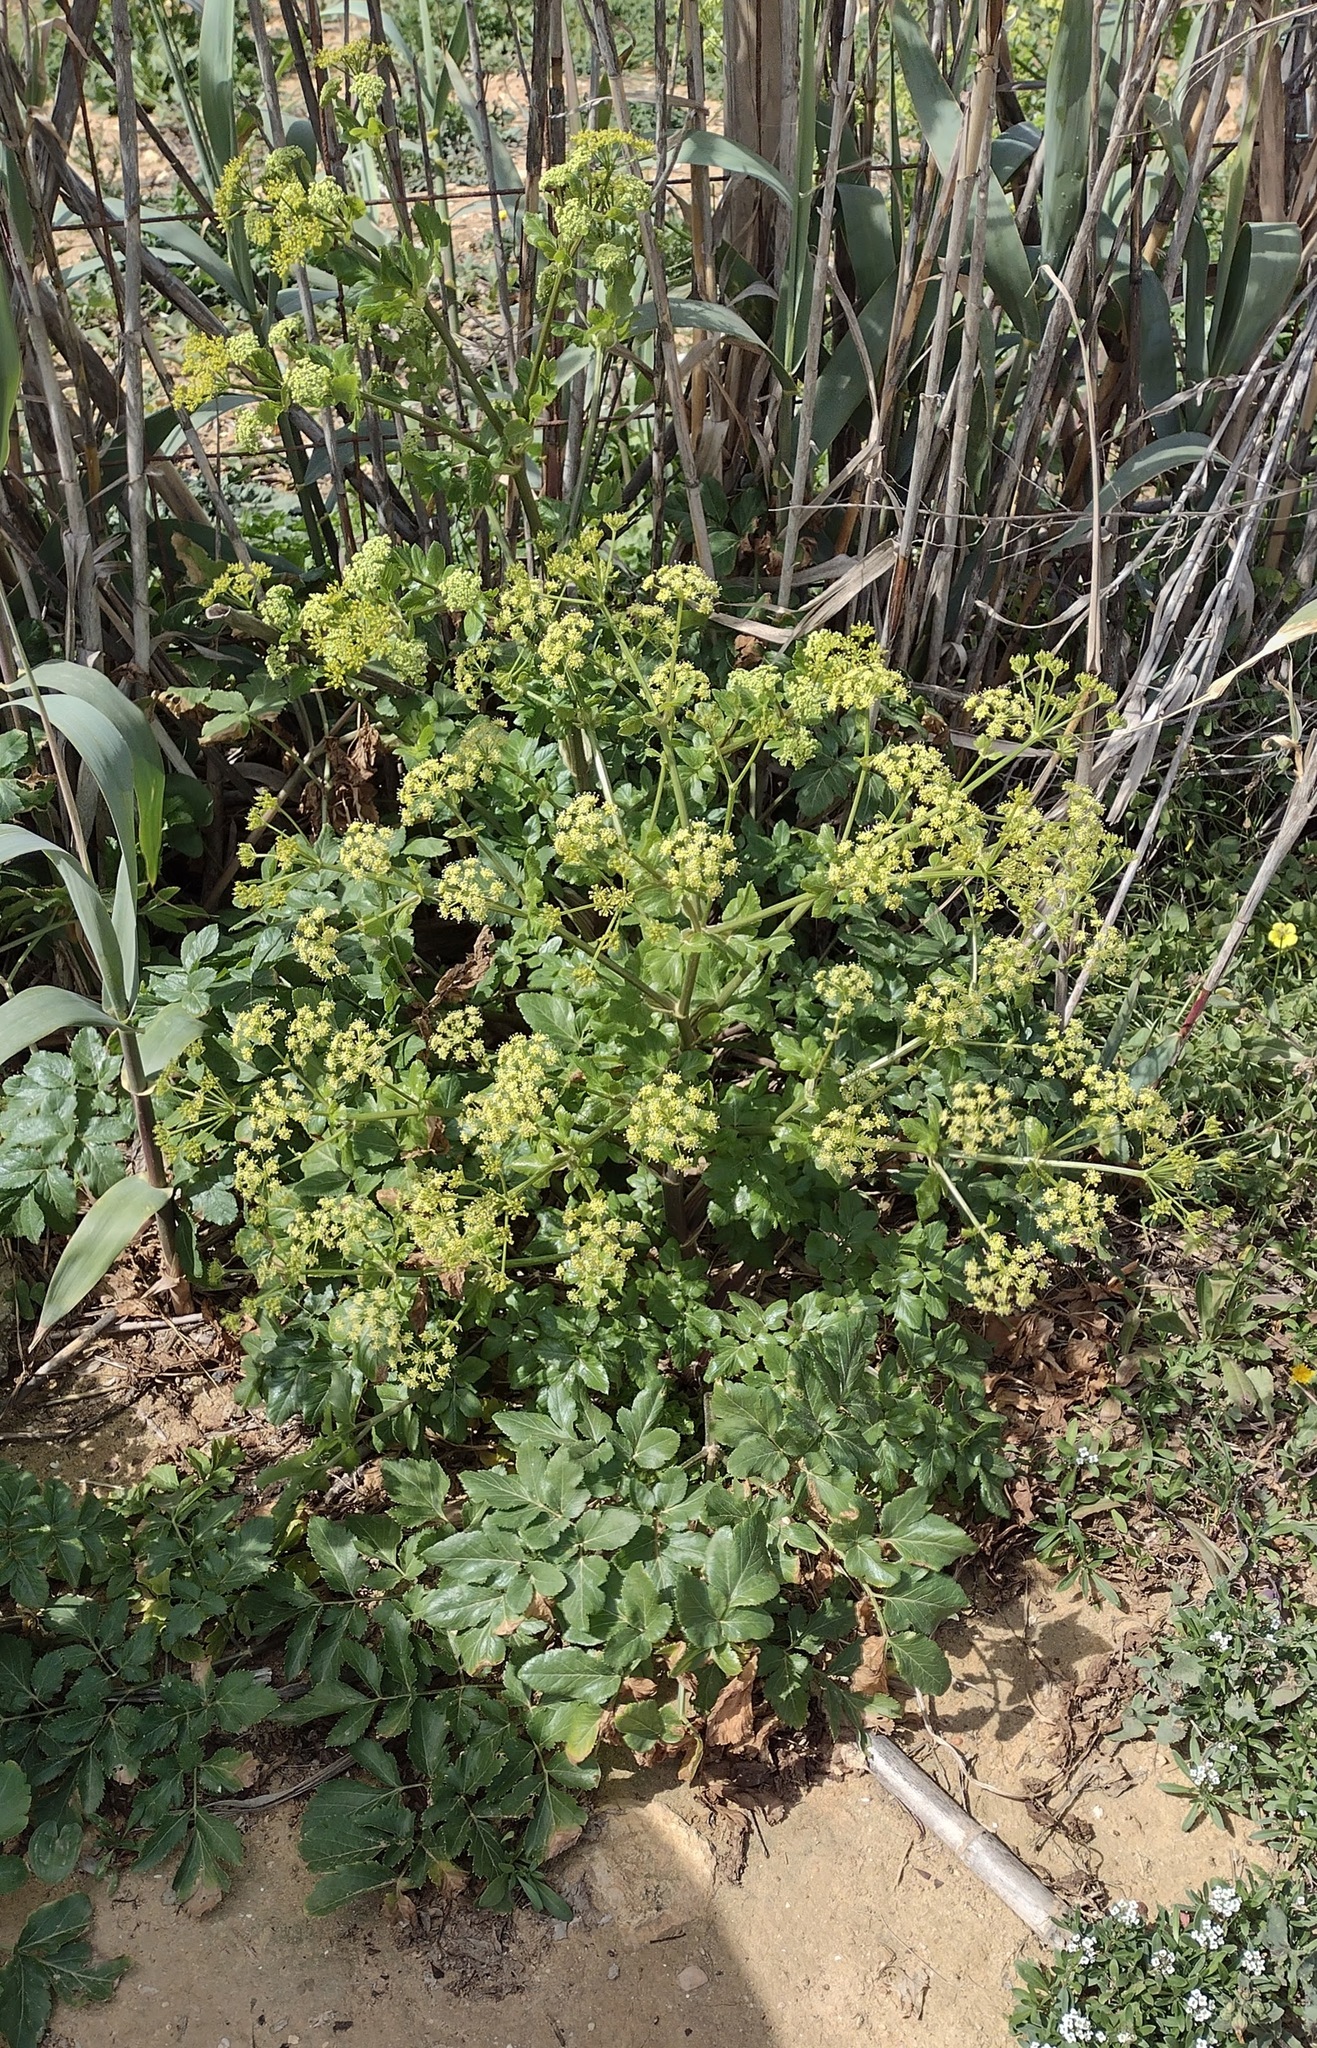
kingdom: Plantae
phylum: Tracheophyta
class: Magnoliopsida
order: Apiales
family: Apiaceae
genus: Smyrnium
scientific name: Smyrnium olusatrum
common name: Alexanders
